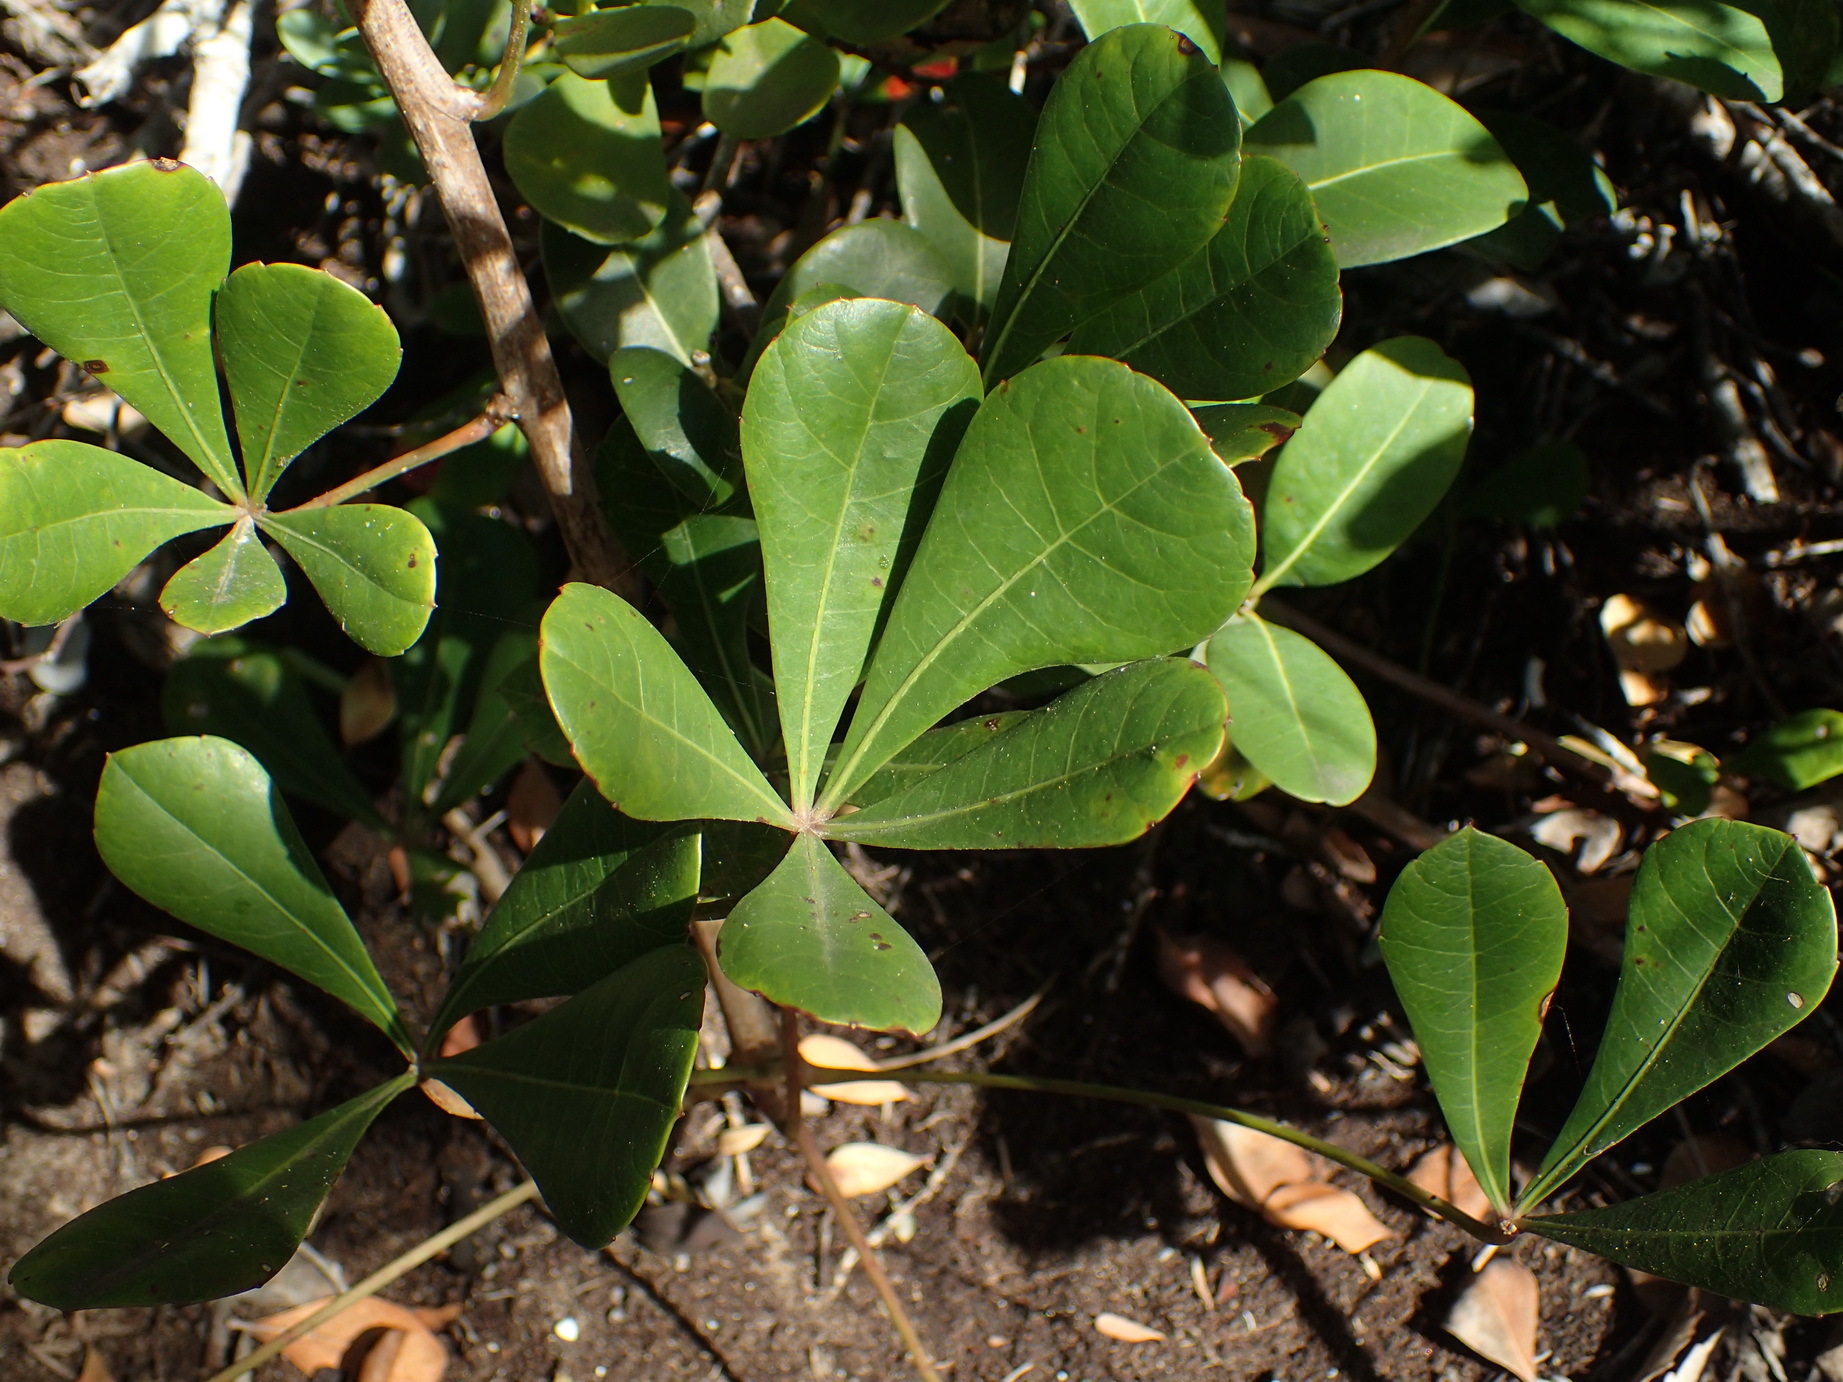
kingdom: Plantae
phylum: Tracheophyta
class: Magnoliopsida
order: Apiales
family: Araliaceae
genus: Cussonia
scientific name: Cussonia thyrsiflora
